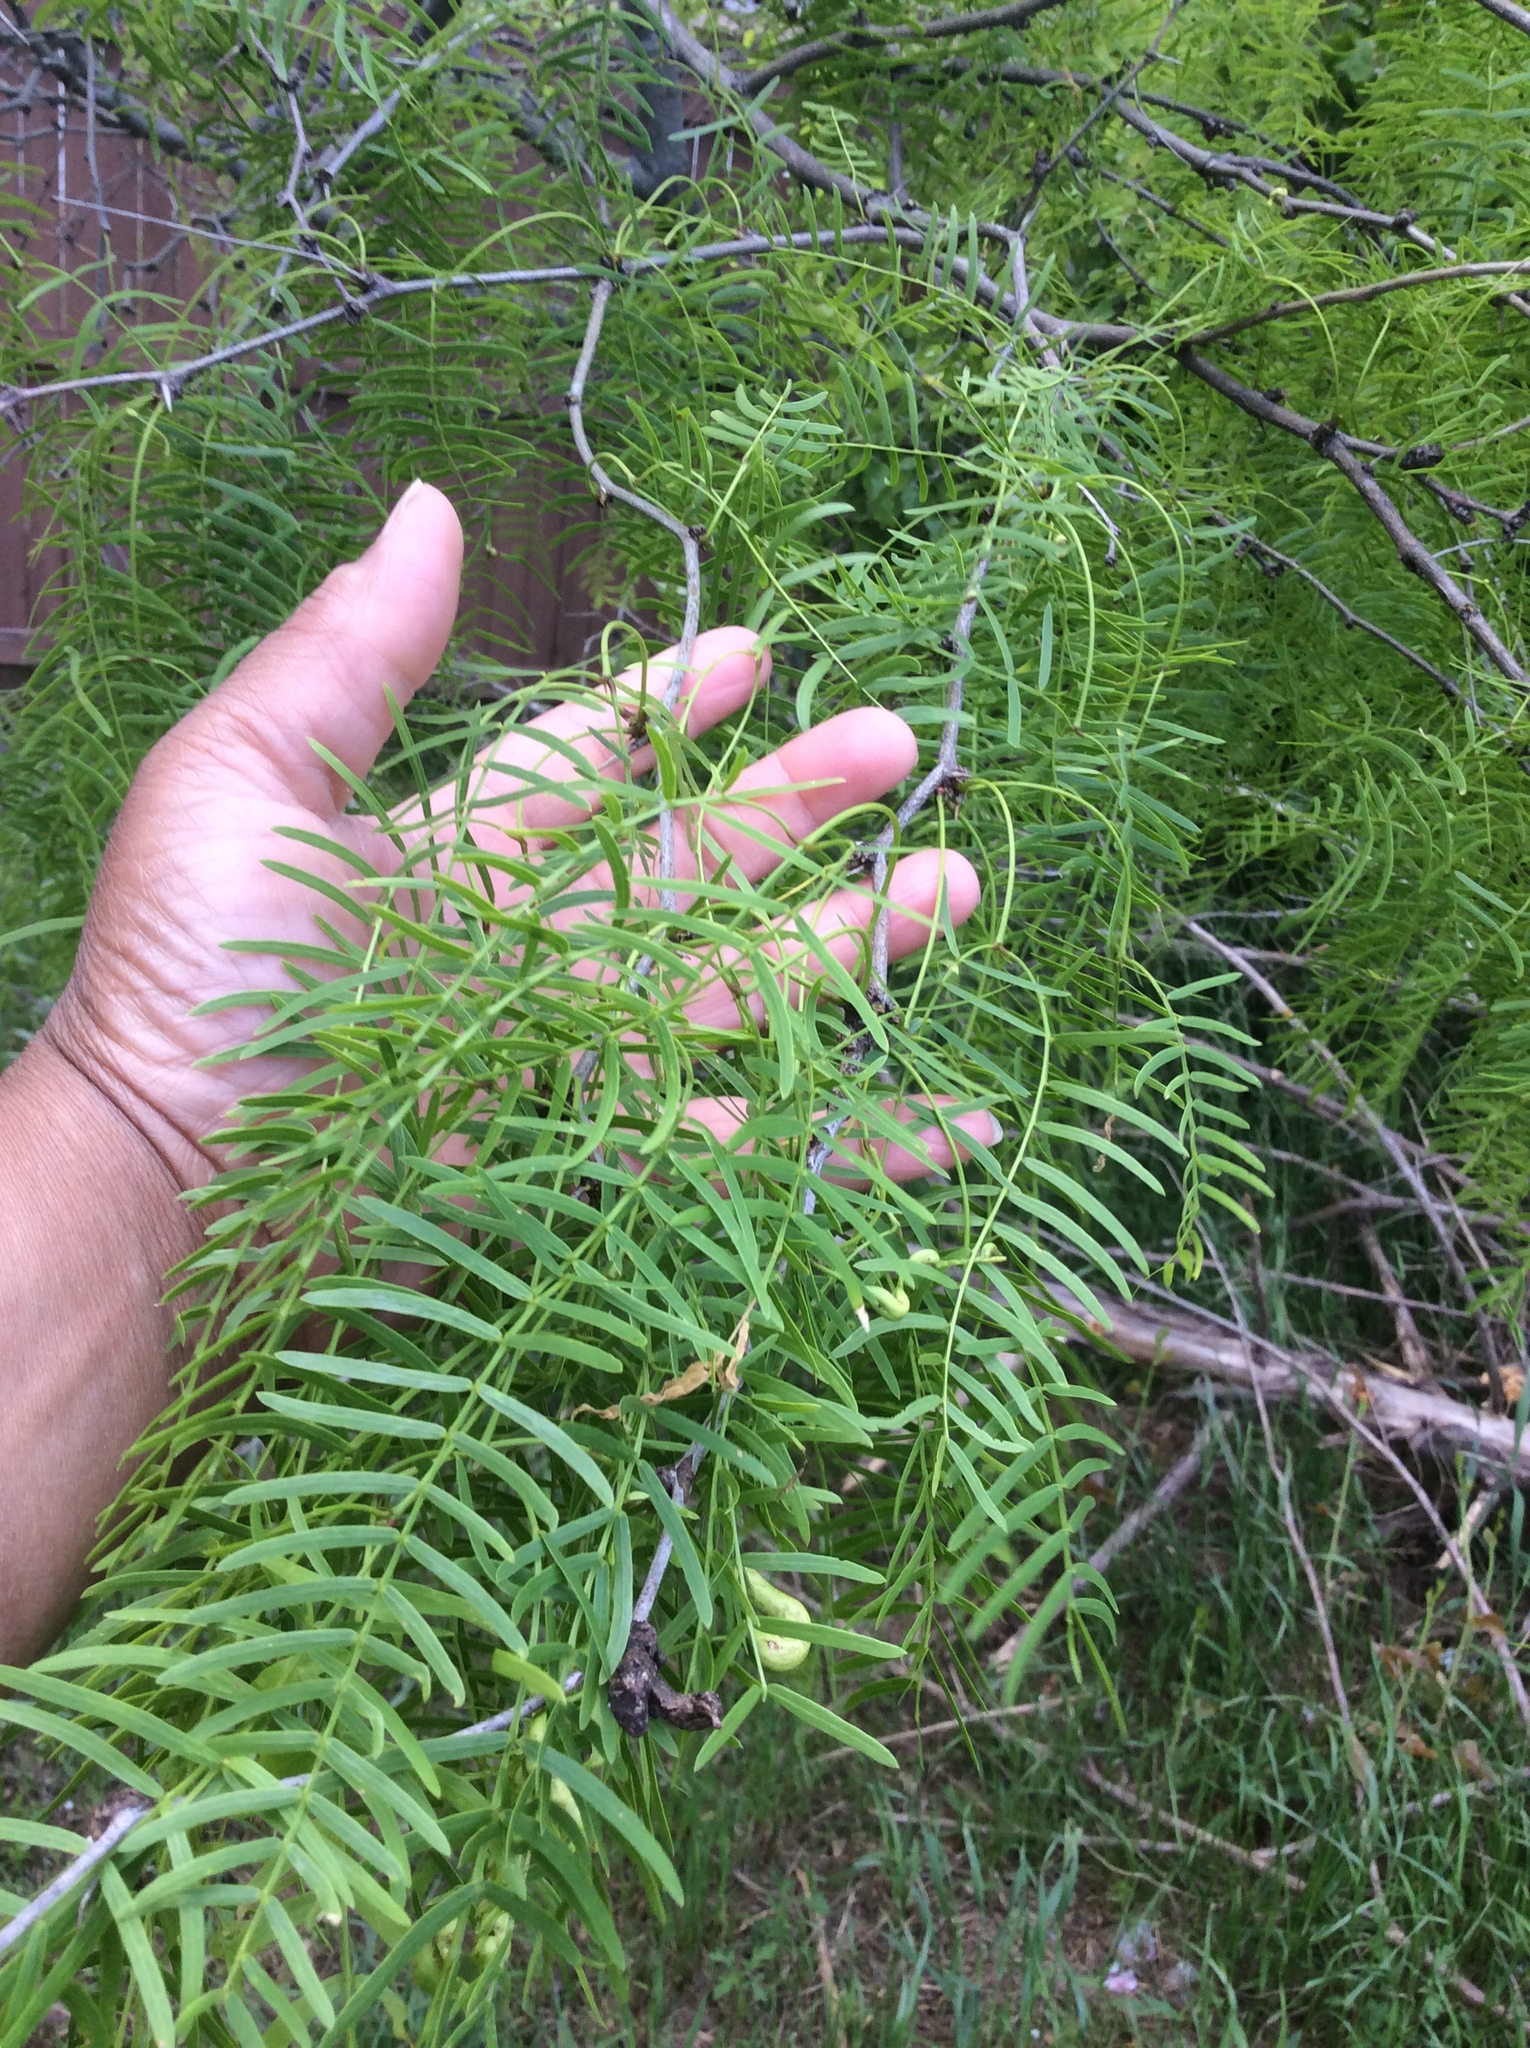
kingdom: Plantae
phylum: Tracheophyta
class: Magnoliopsida
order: Fabales
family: Fabaceae
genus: Prosopis
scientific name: Prosopis glandulosa
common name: Honey mesquite
